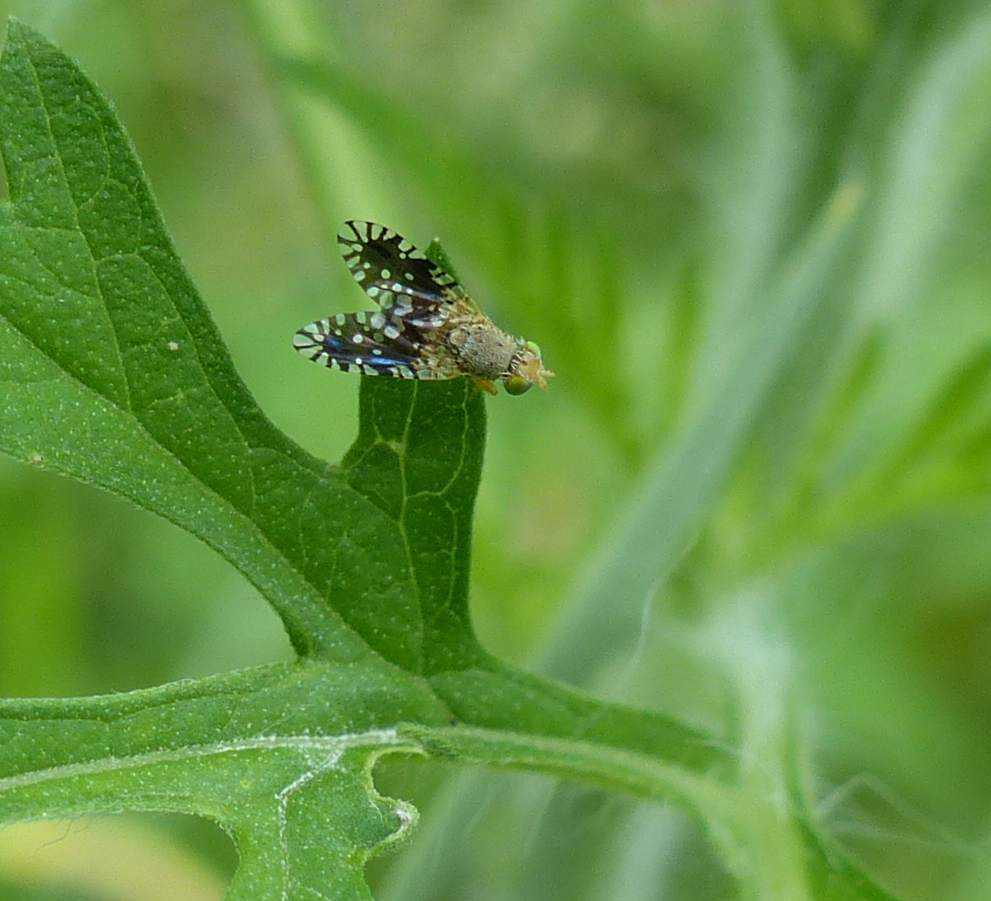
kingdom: Animalia
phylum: Arthropoda
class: Insecta
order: Diptera
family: Tephritidae
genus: Euaresta
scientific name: Euaresta bella
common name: Common ragweed fruit fly
